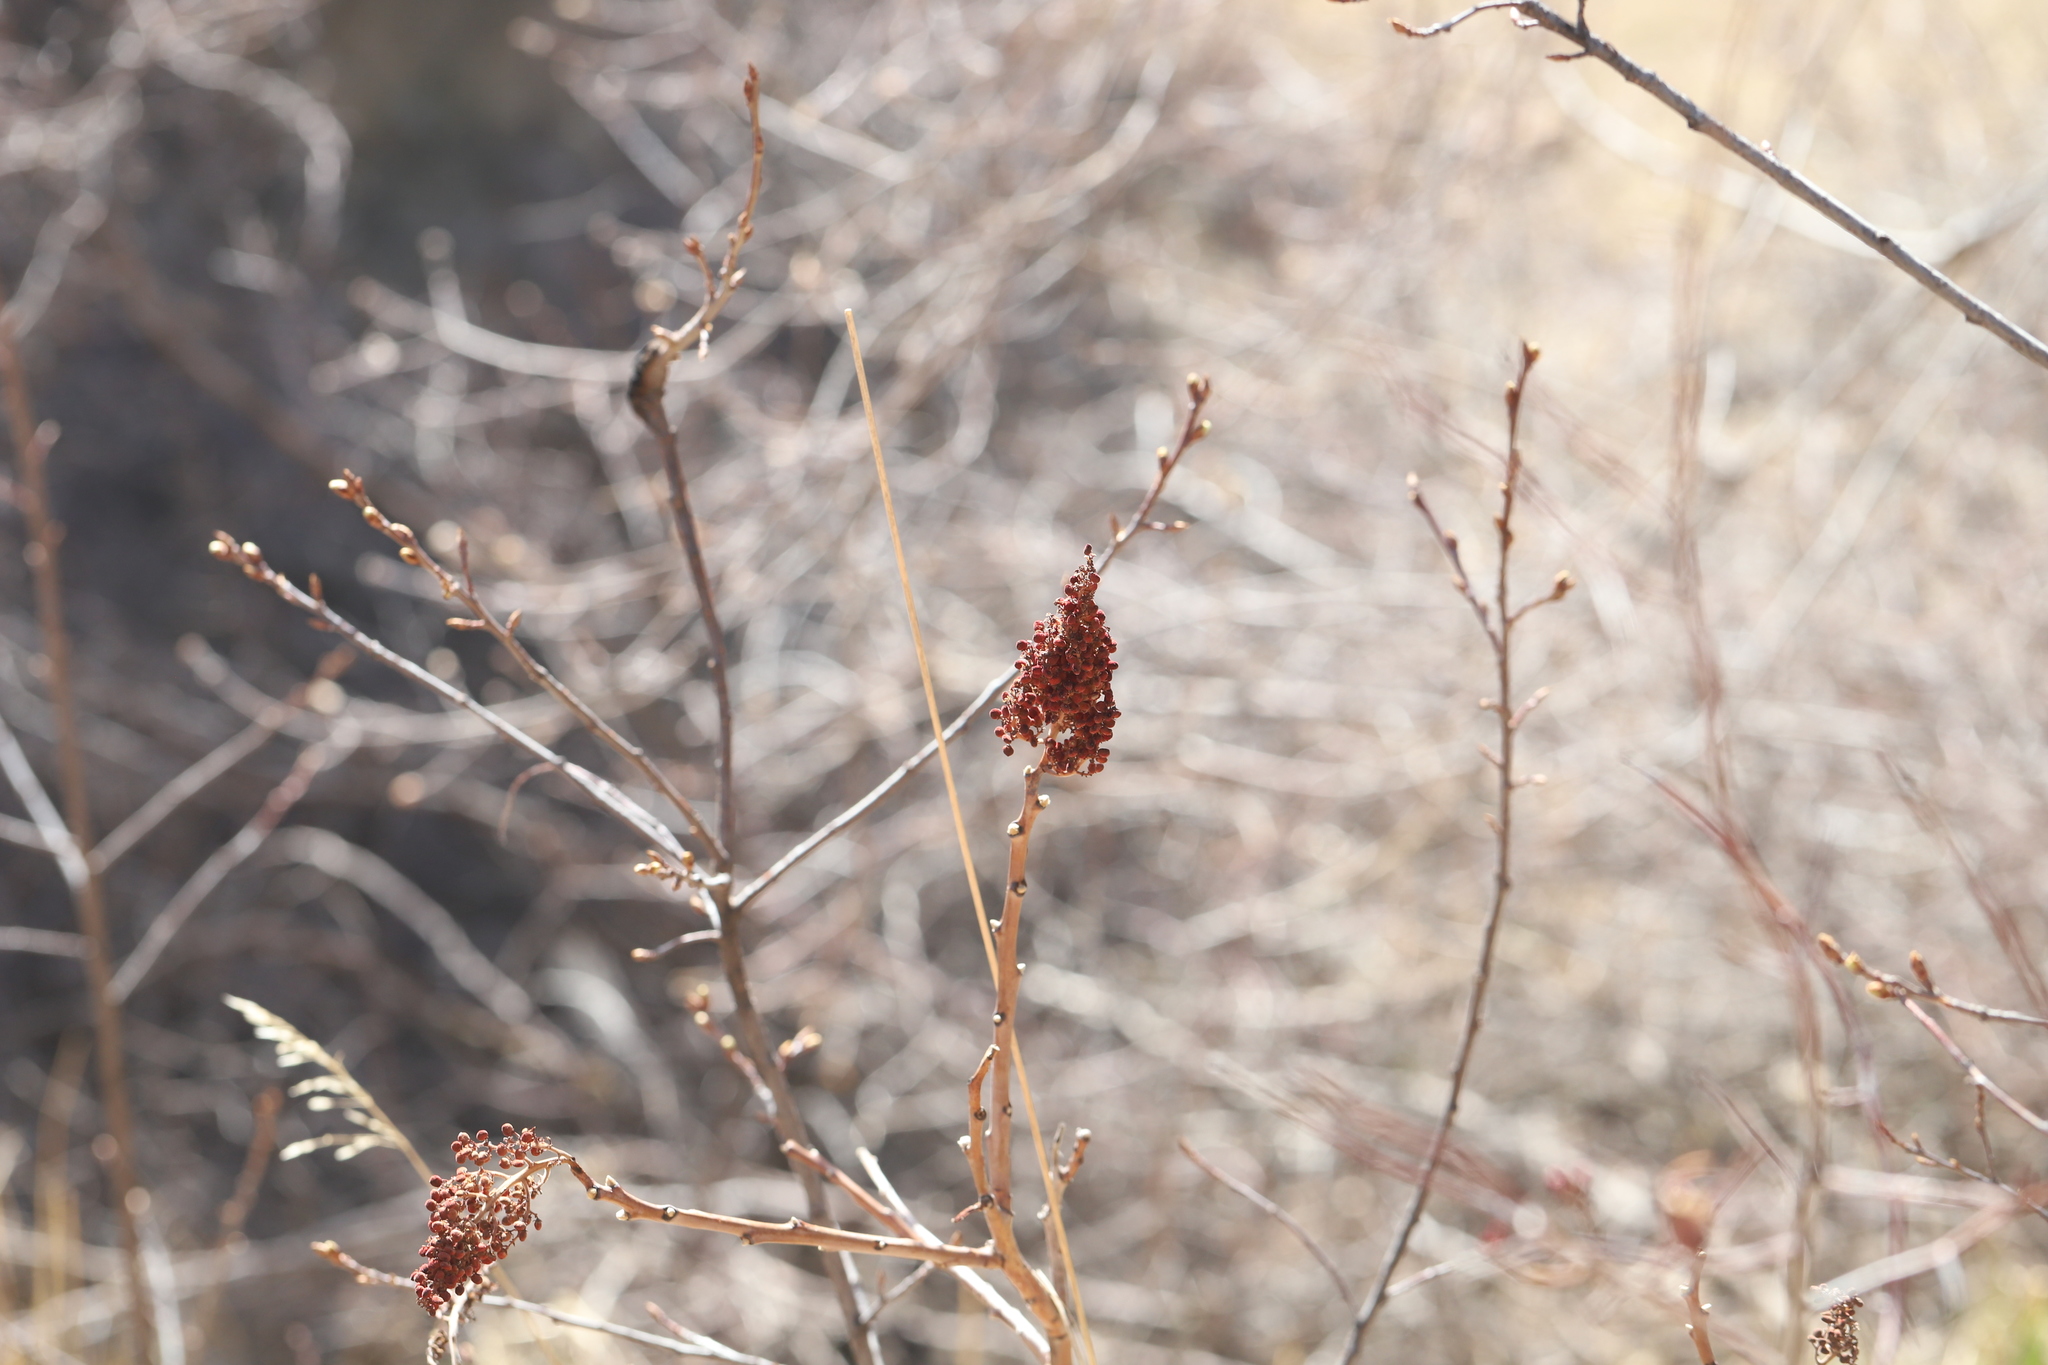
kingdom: Plantae
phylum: Tracheophyta
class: Magnoliopsida
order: Sapindales
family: Anacardiaceae
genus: Rhus
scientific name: Rhus glabra
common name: Scarlet sumac
